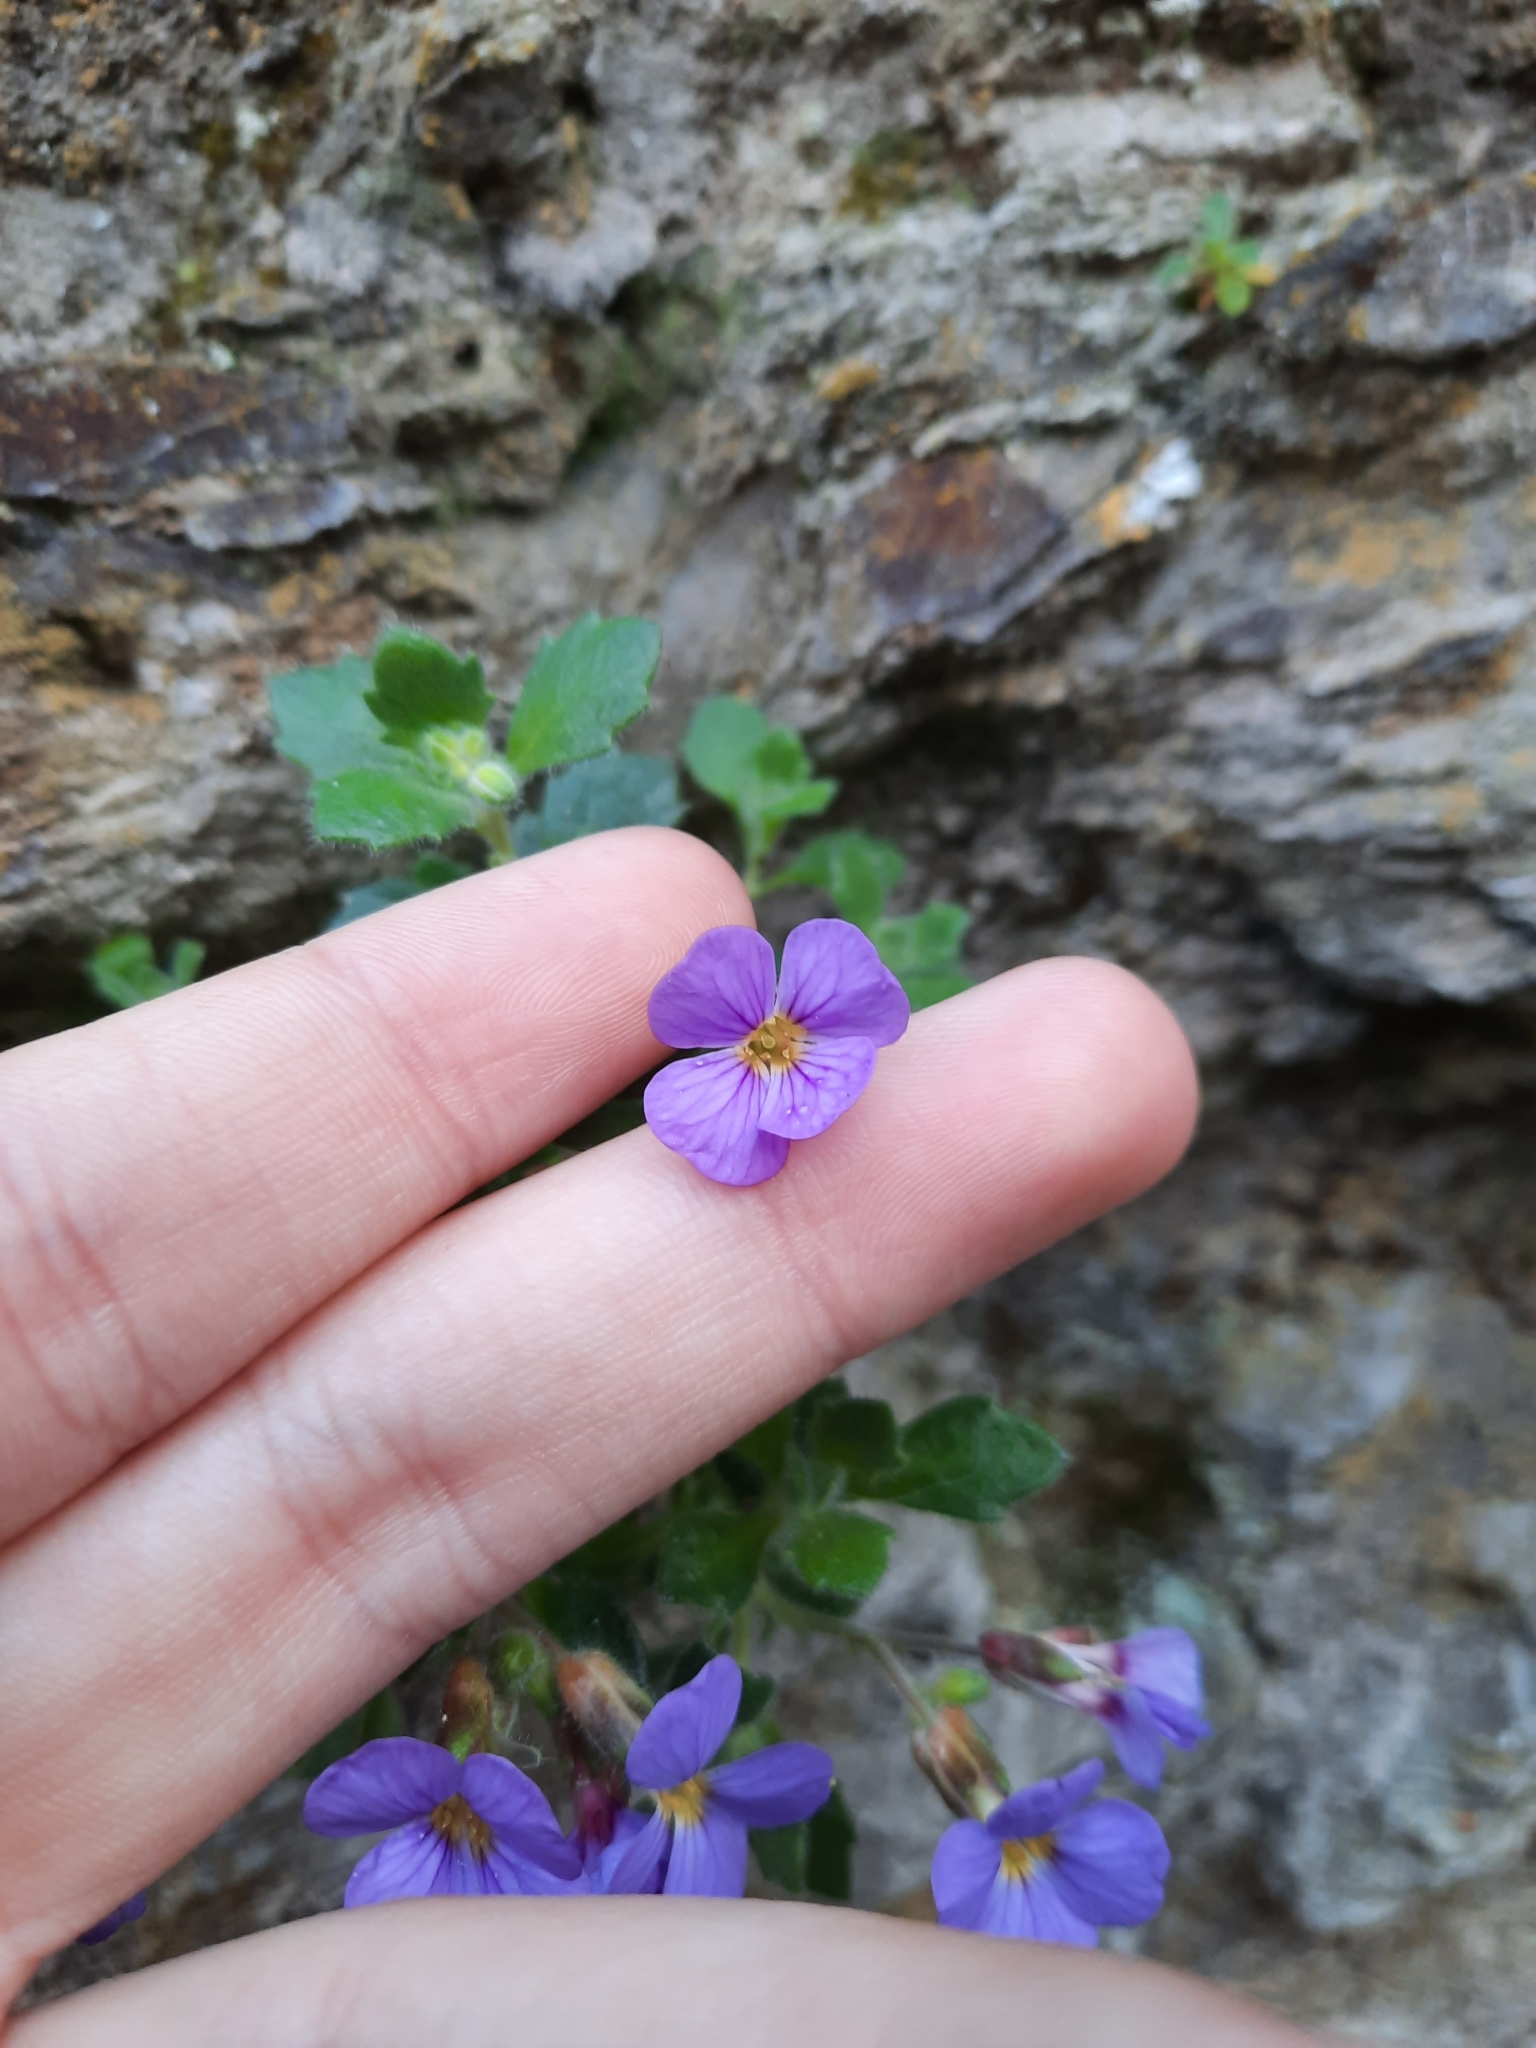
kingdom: Plantae
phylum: Tracheophyta
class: Magnoliopsida
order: Brassicales
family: Brassicaceae
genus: Aubrieta
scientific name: Aubrieta deltoidea
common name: Aubretia
